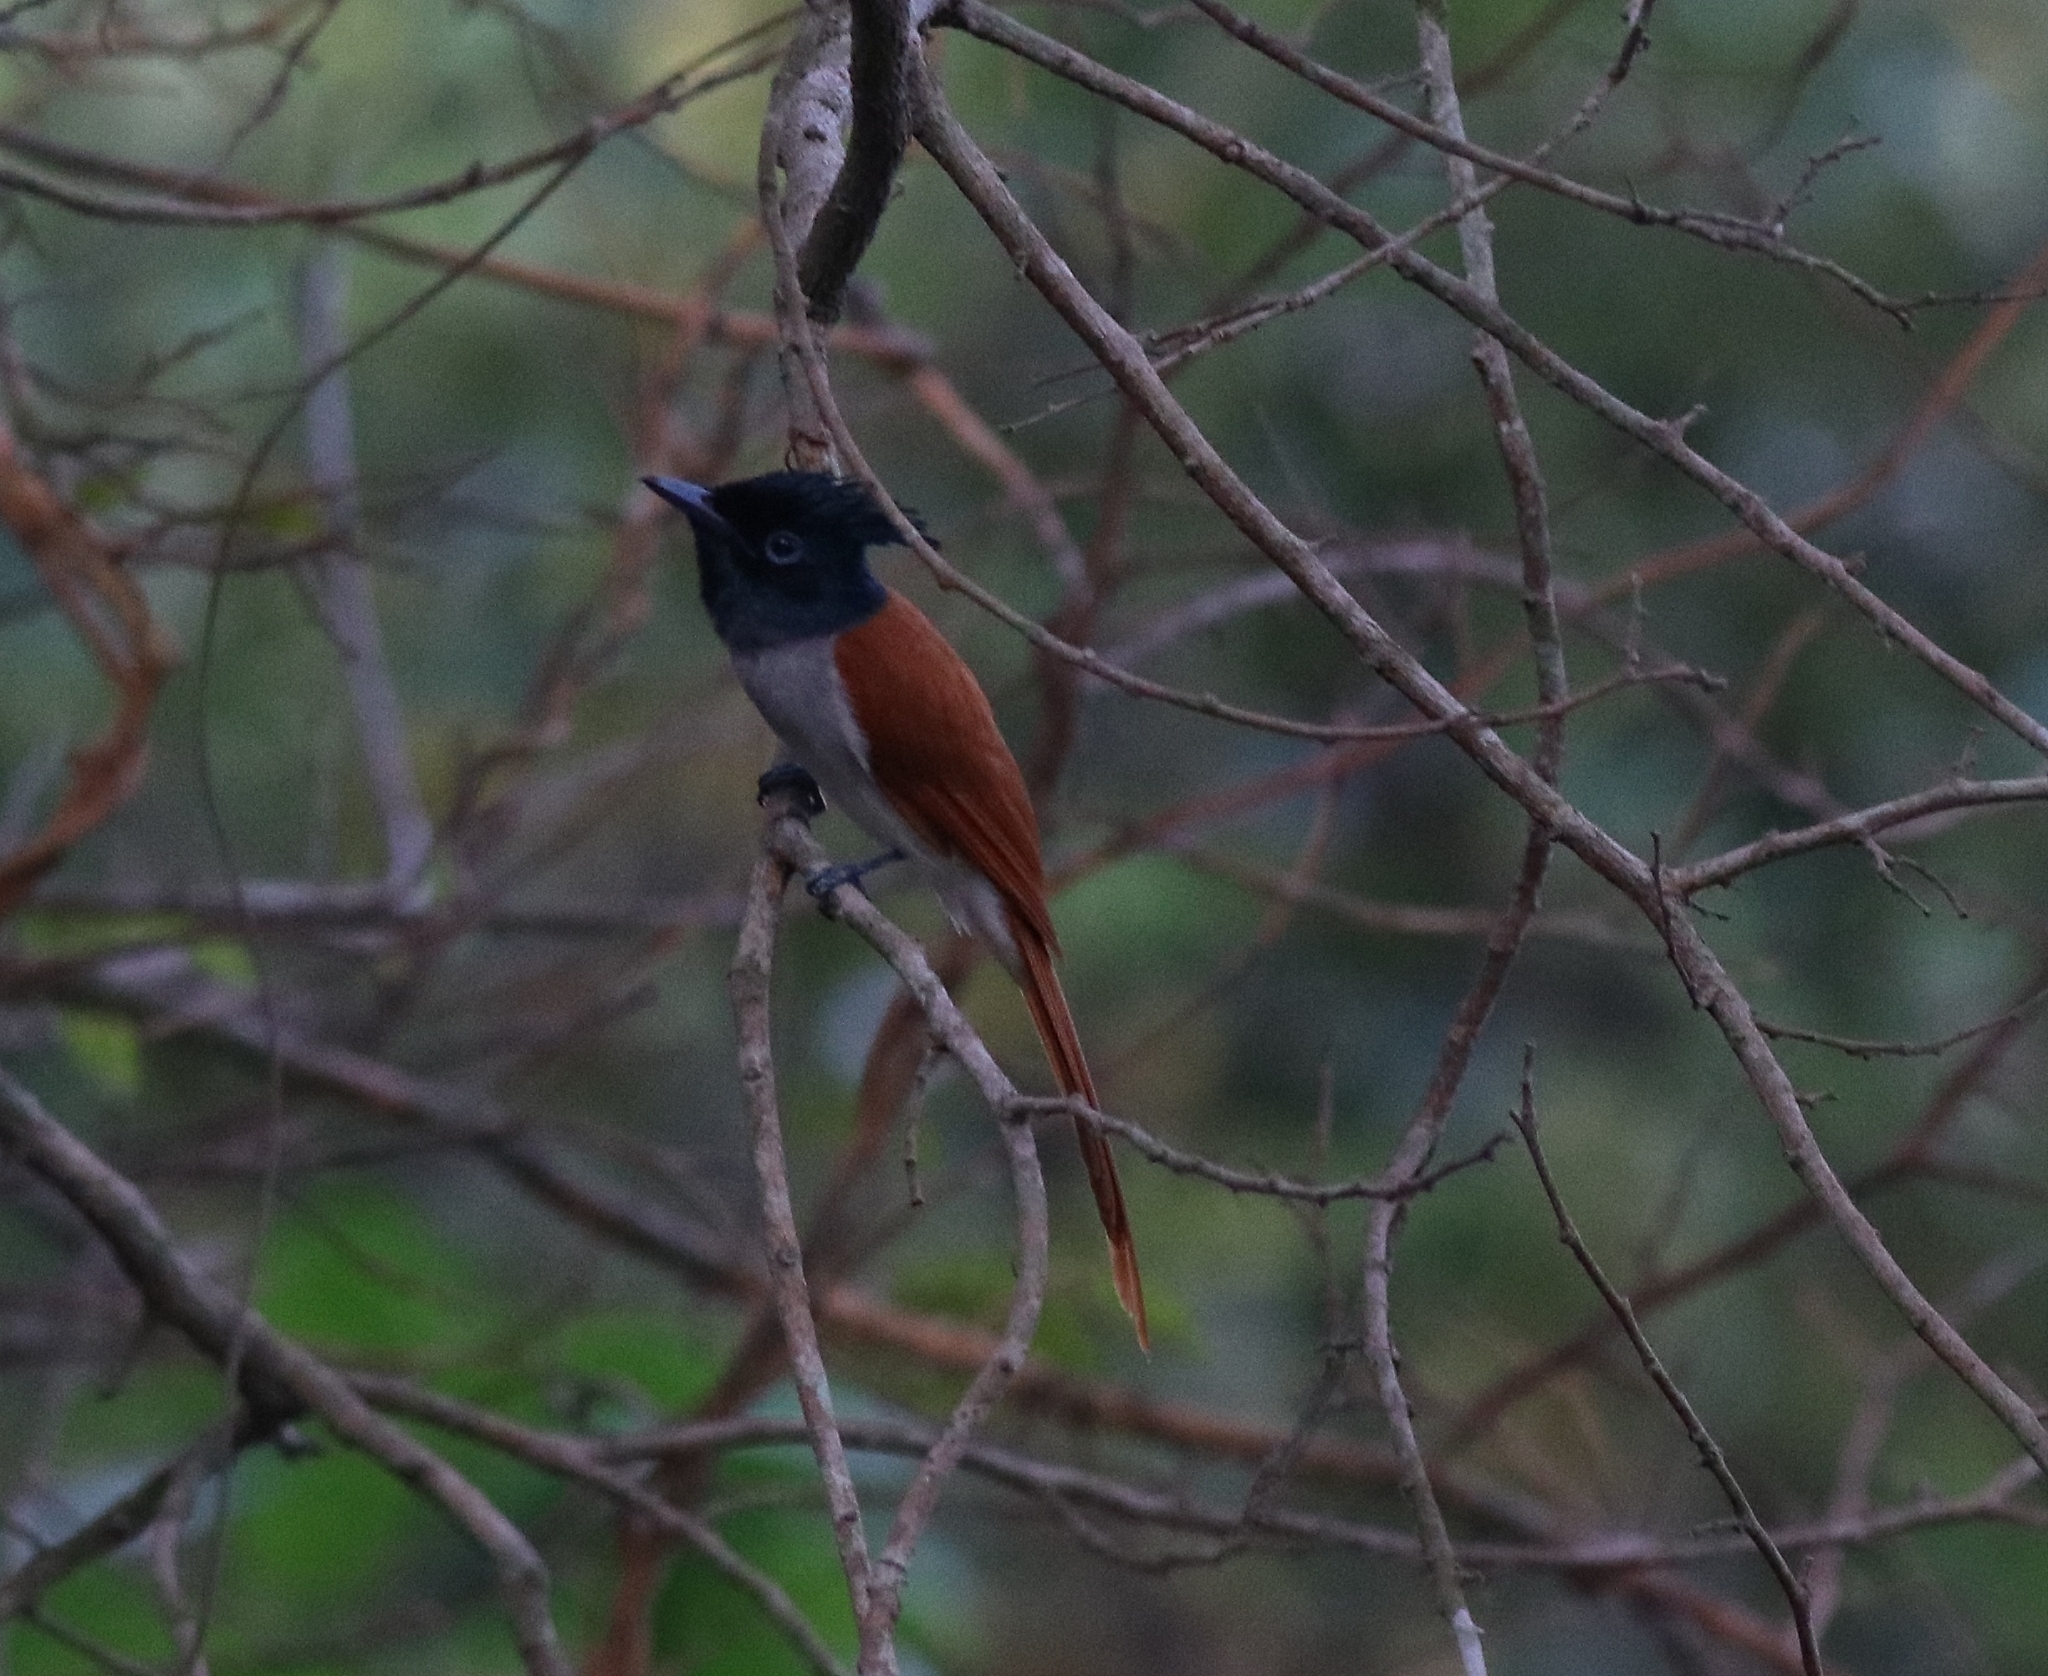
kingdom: Animalia
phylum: Chordata
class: Aves
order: Passeriformes
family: Monarchidae
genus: Terpsiphone
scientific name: Terpsiphone paradisi
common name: Indian paradise flycatcher
